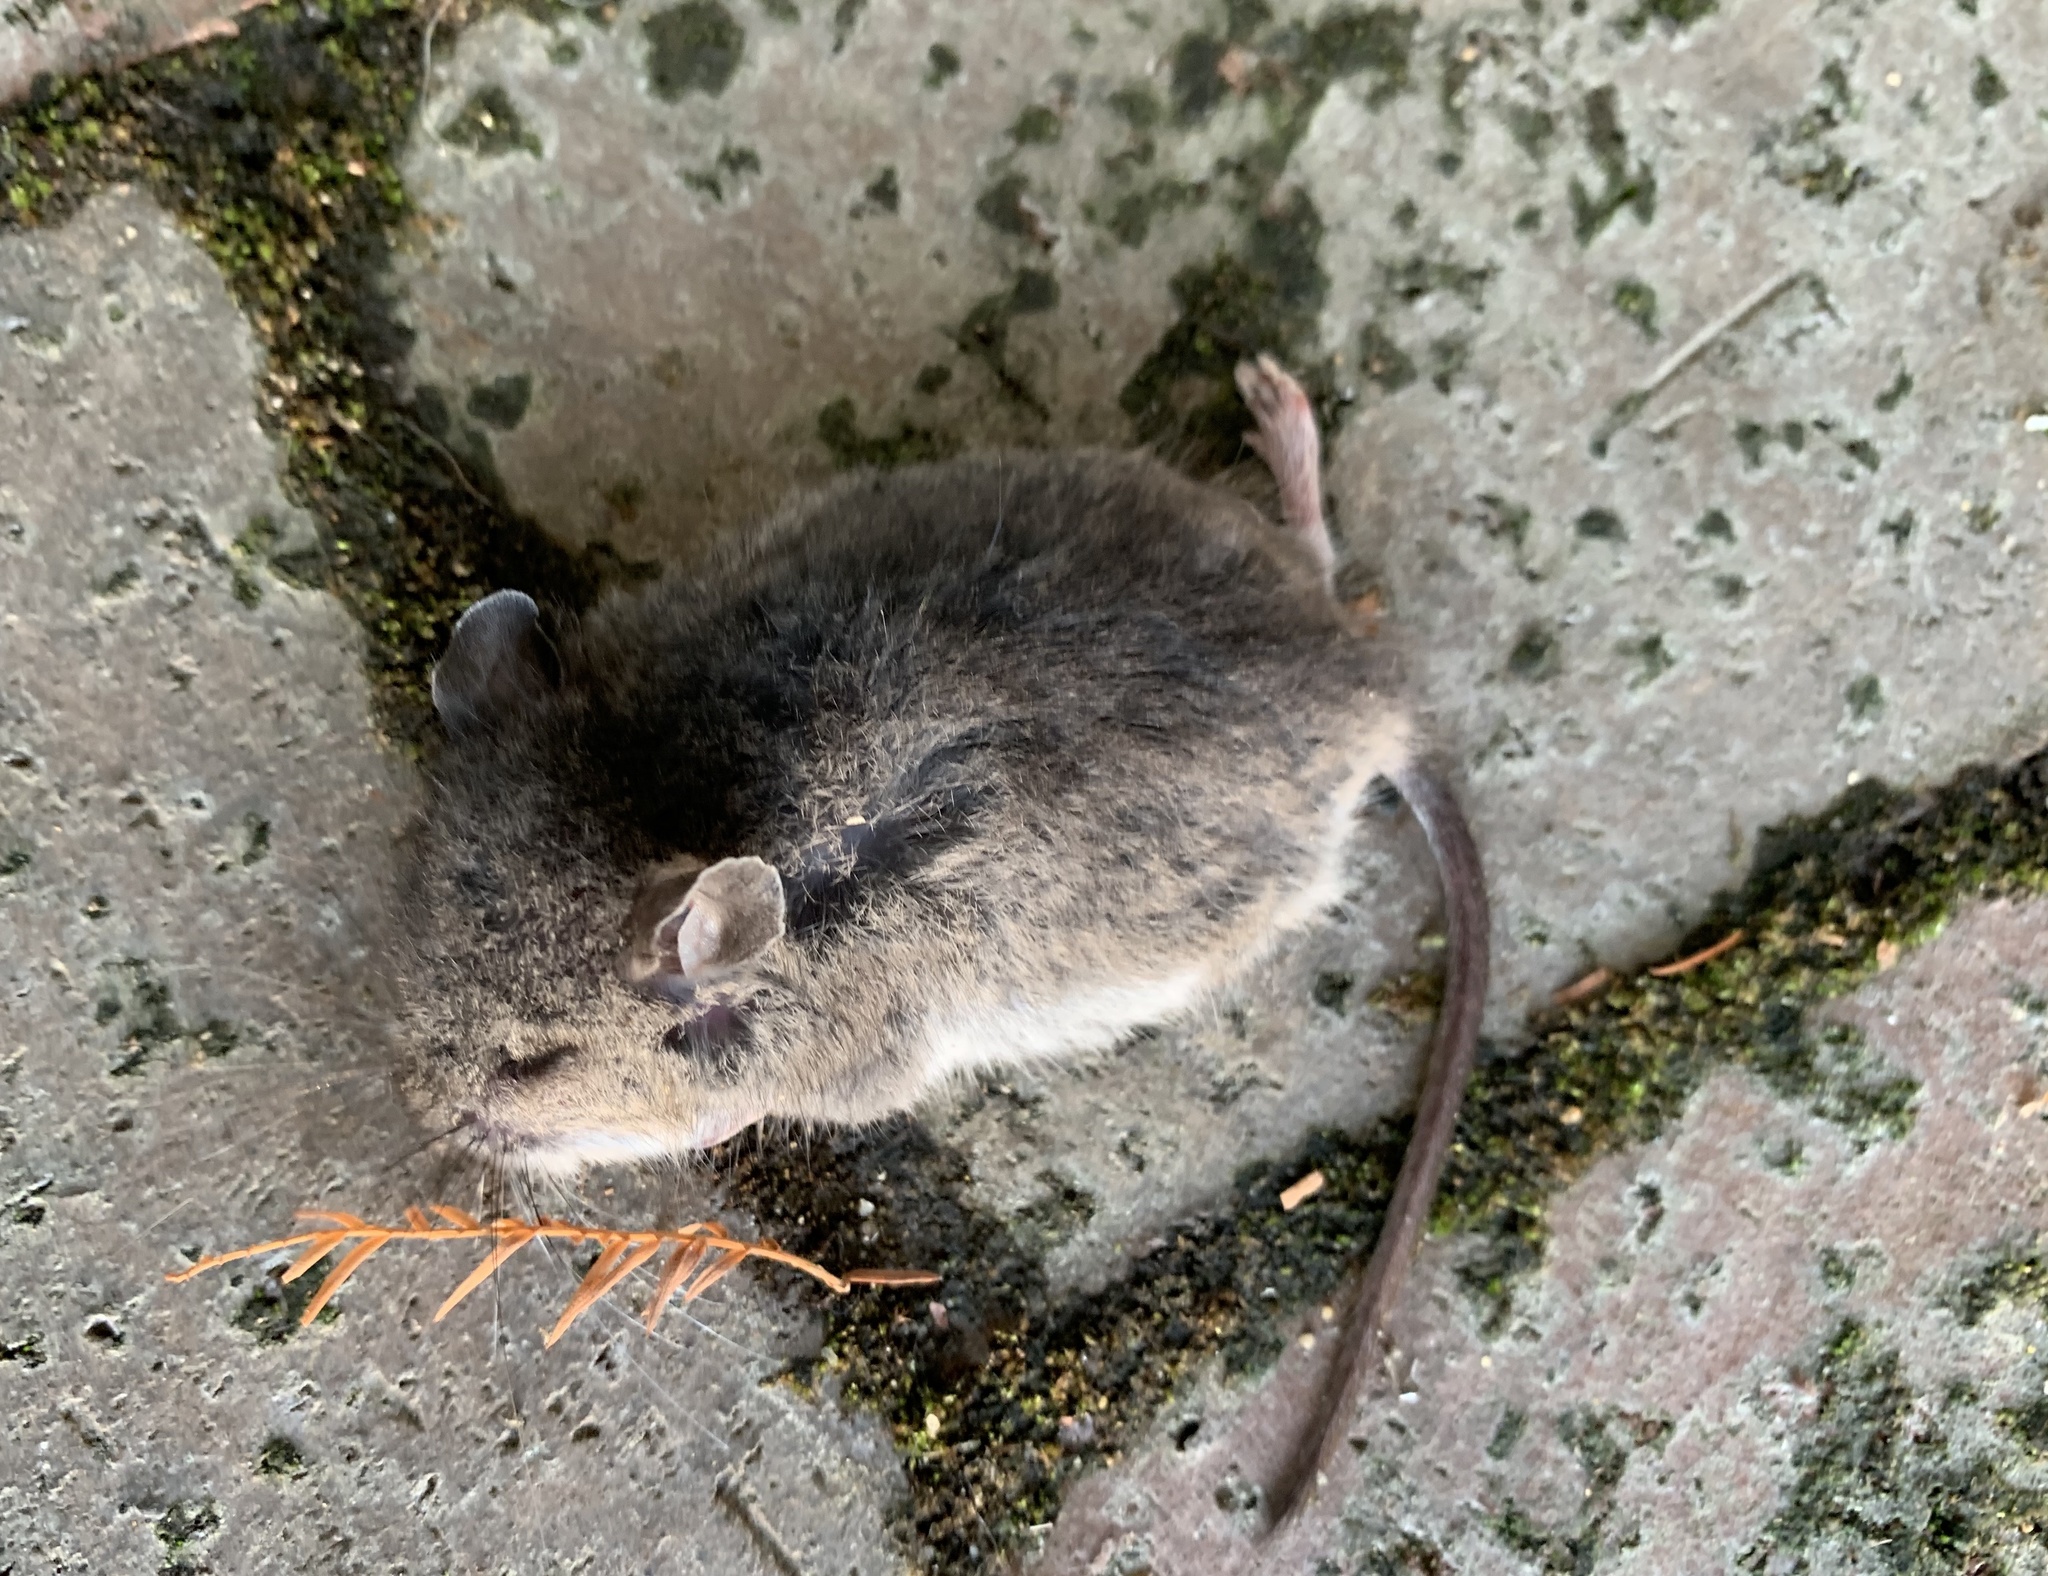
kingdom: Animalia
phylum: Chordata
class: Mammalia
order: Rodentia
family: Cricetidae
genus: Peromyscus
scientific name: Peromyscus leucopus
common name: White-footed deermouse
